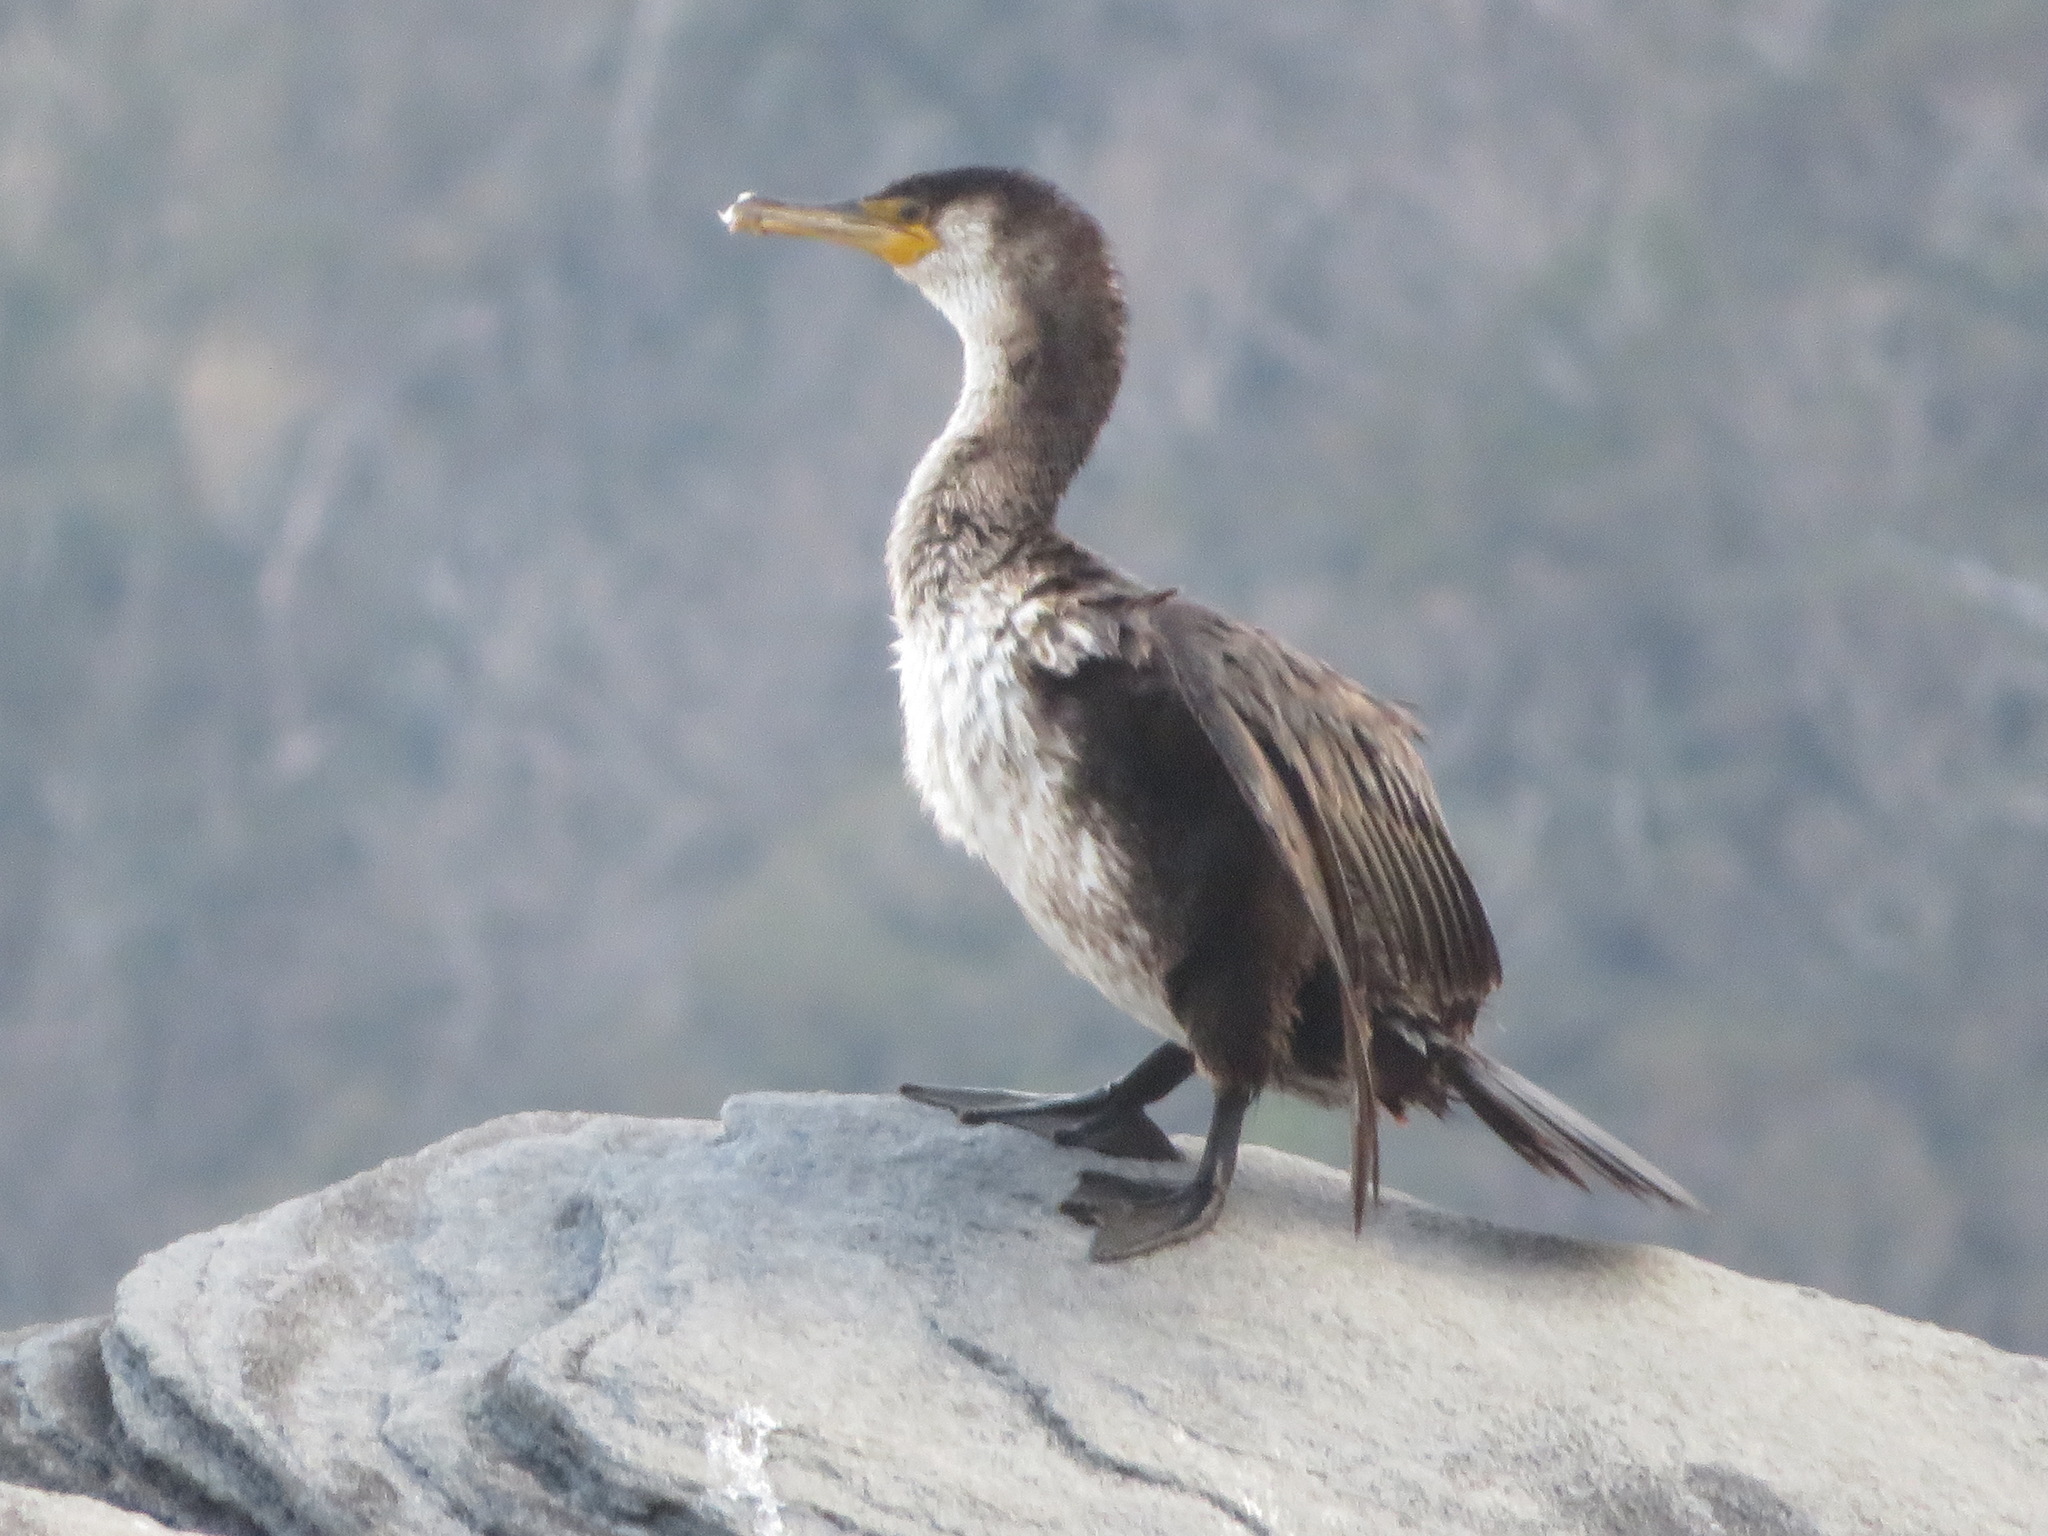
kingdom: Animalia
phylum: Chordata
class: Aves
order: Suliformes
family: Phalacrocoracidae
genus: Phalacrocorax
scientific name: Phalacrocorax capillatus
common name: Japanese cormorant
